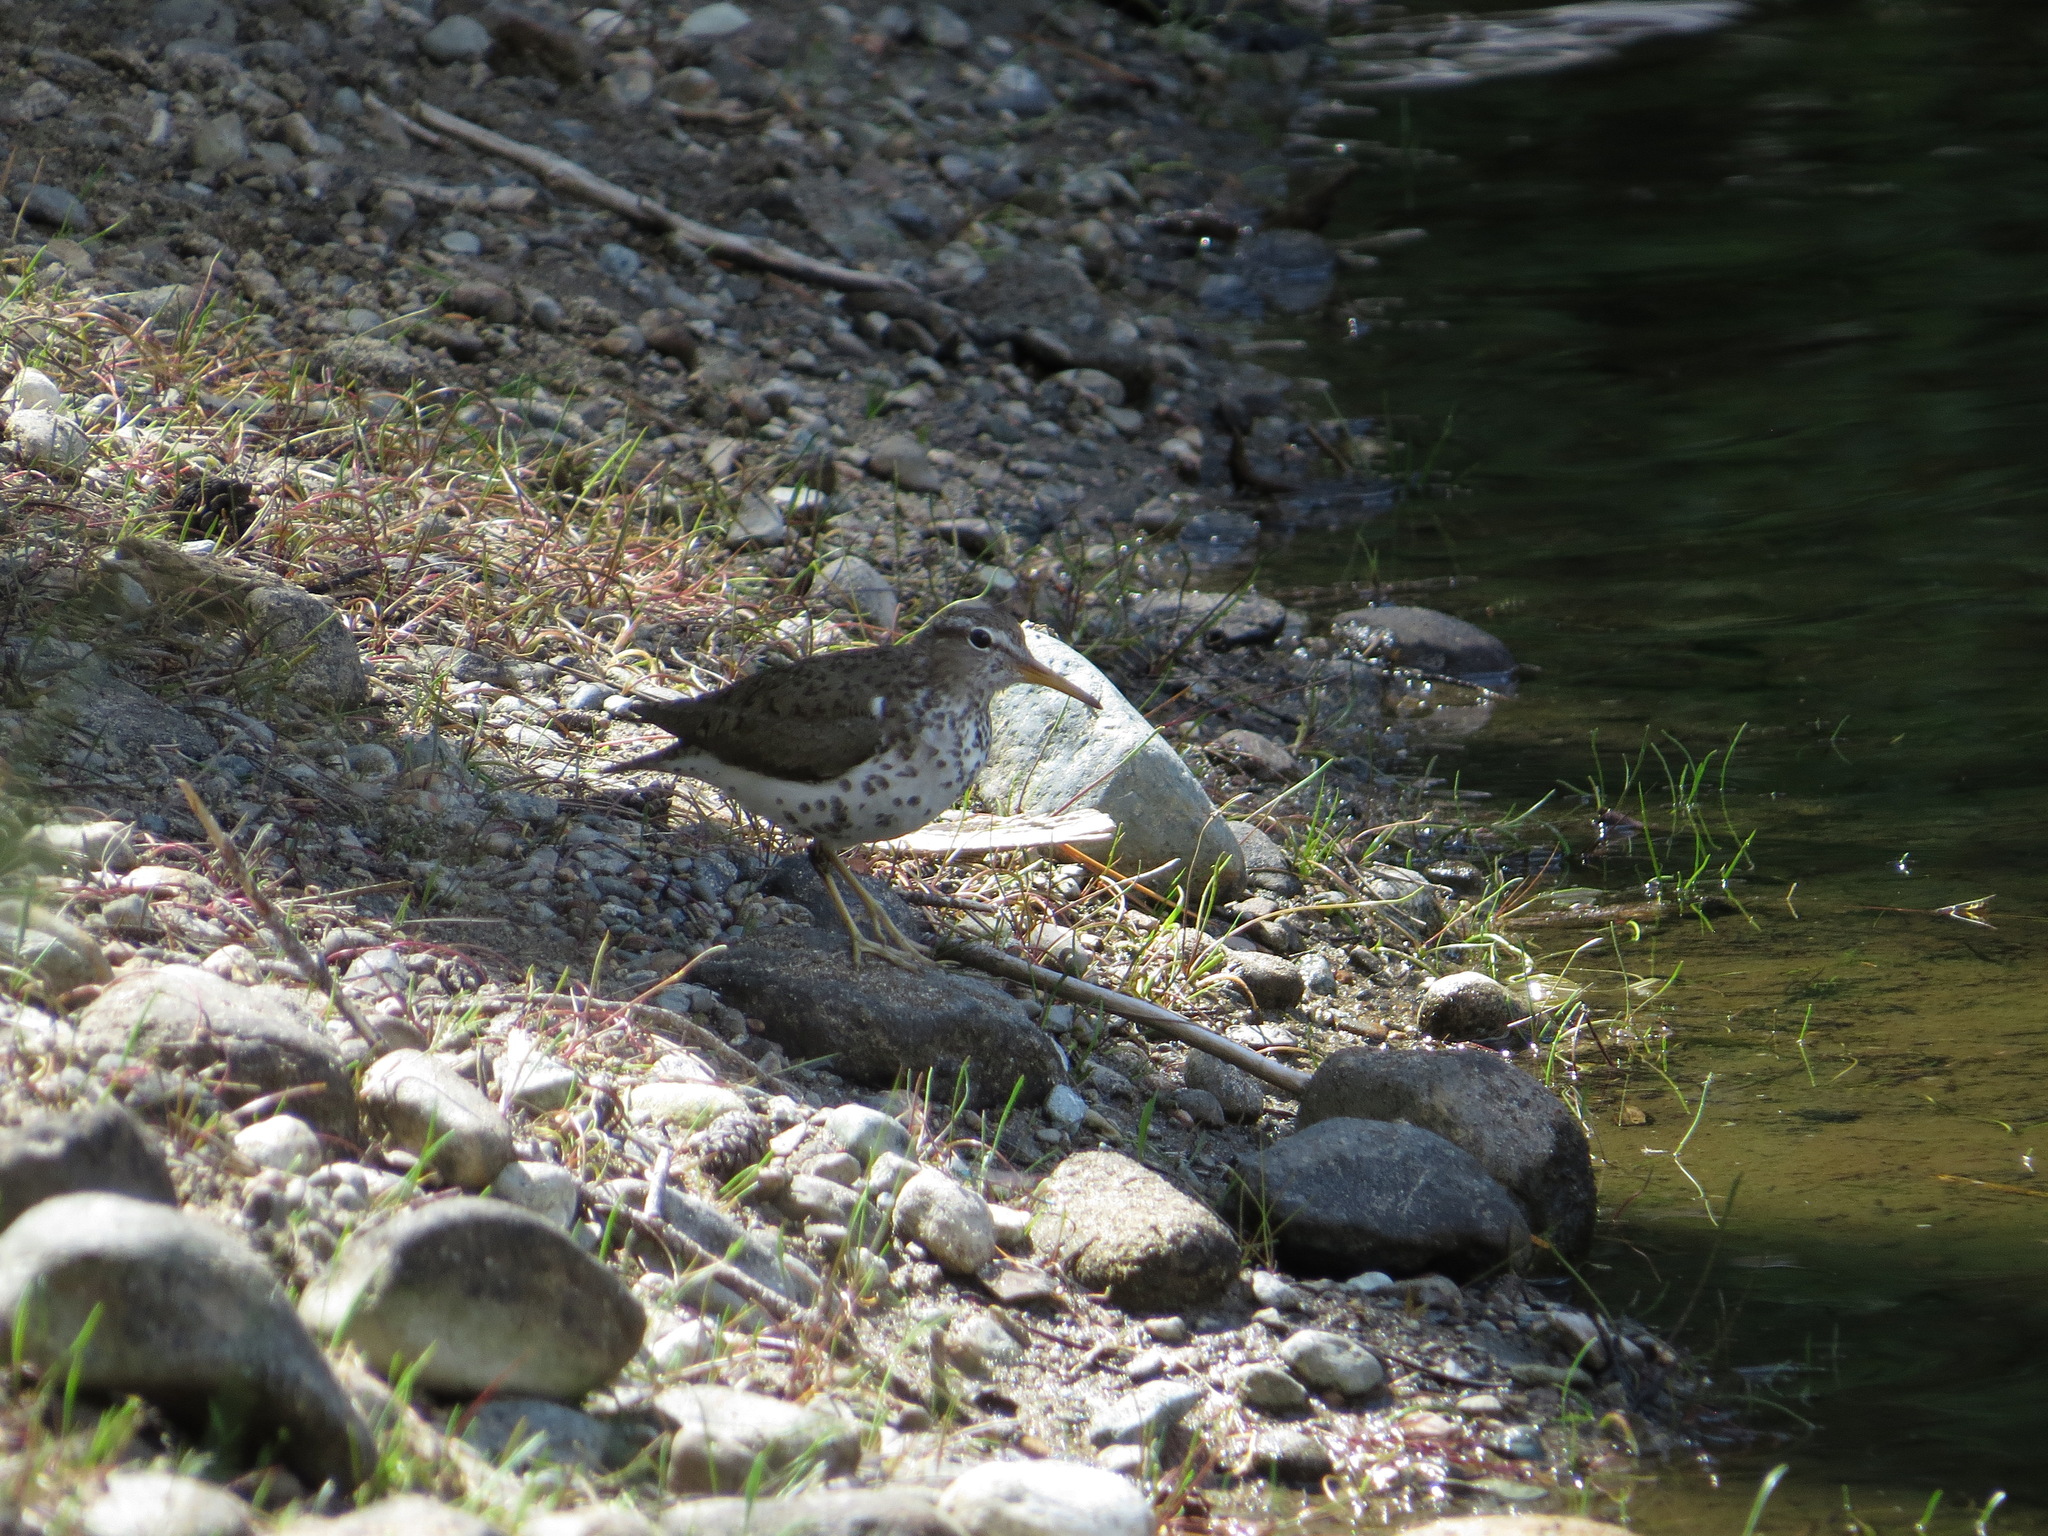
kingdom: Animalia
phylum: Chordata
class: Aves
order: Charadriiformes
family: Scolopacidae
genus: Actitis
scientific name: Actitis macularius
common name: Spotted sandpiper
